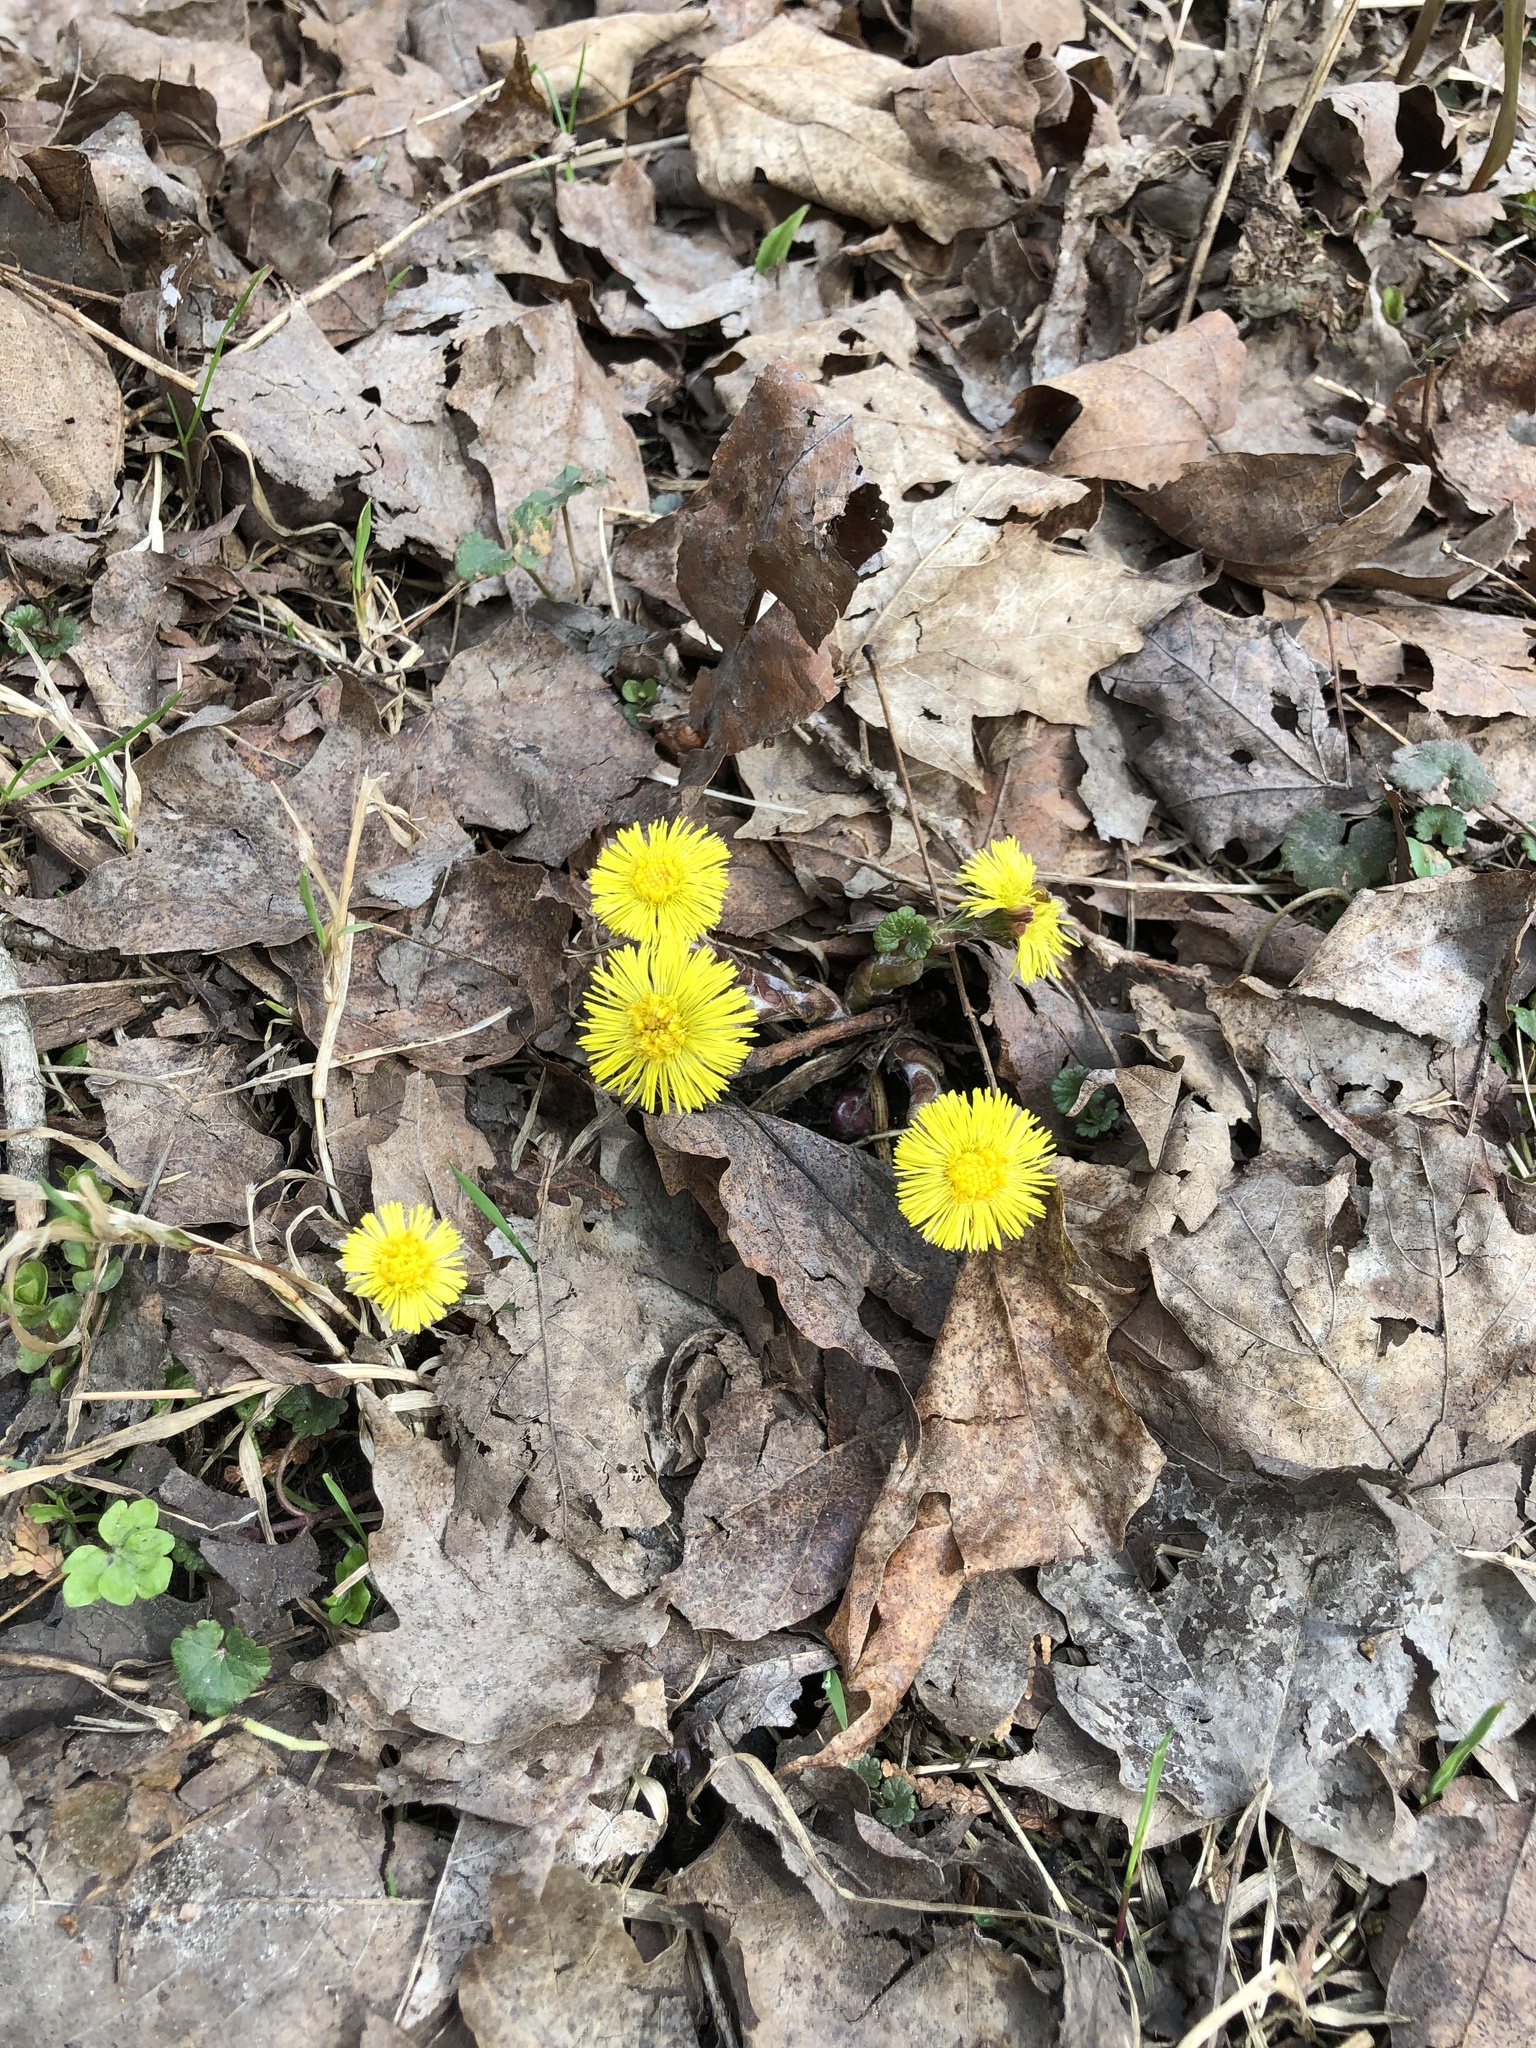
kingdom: Plantae
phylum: Tracheophyta
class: Magnoliopsida
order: Asterales
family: Asteraceae
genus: Tussilago
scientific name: Tussilago farfara
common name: Coltsfoot
